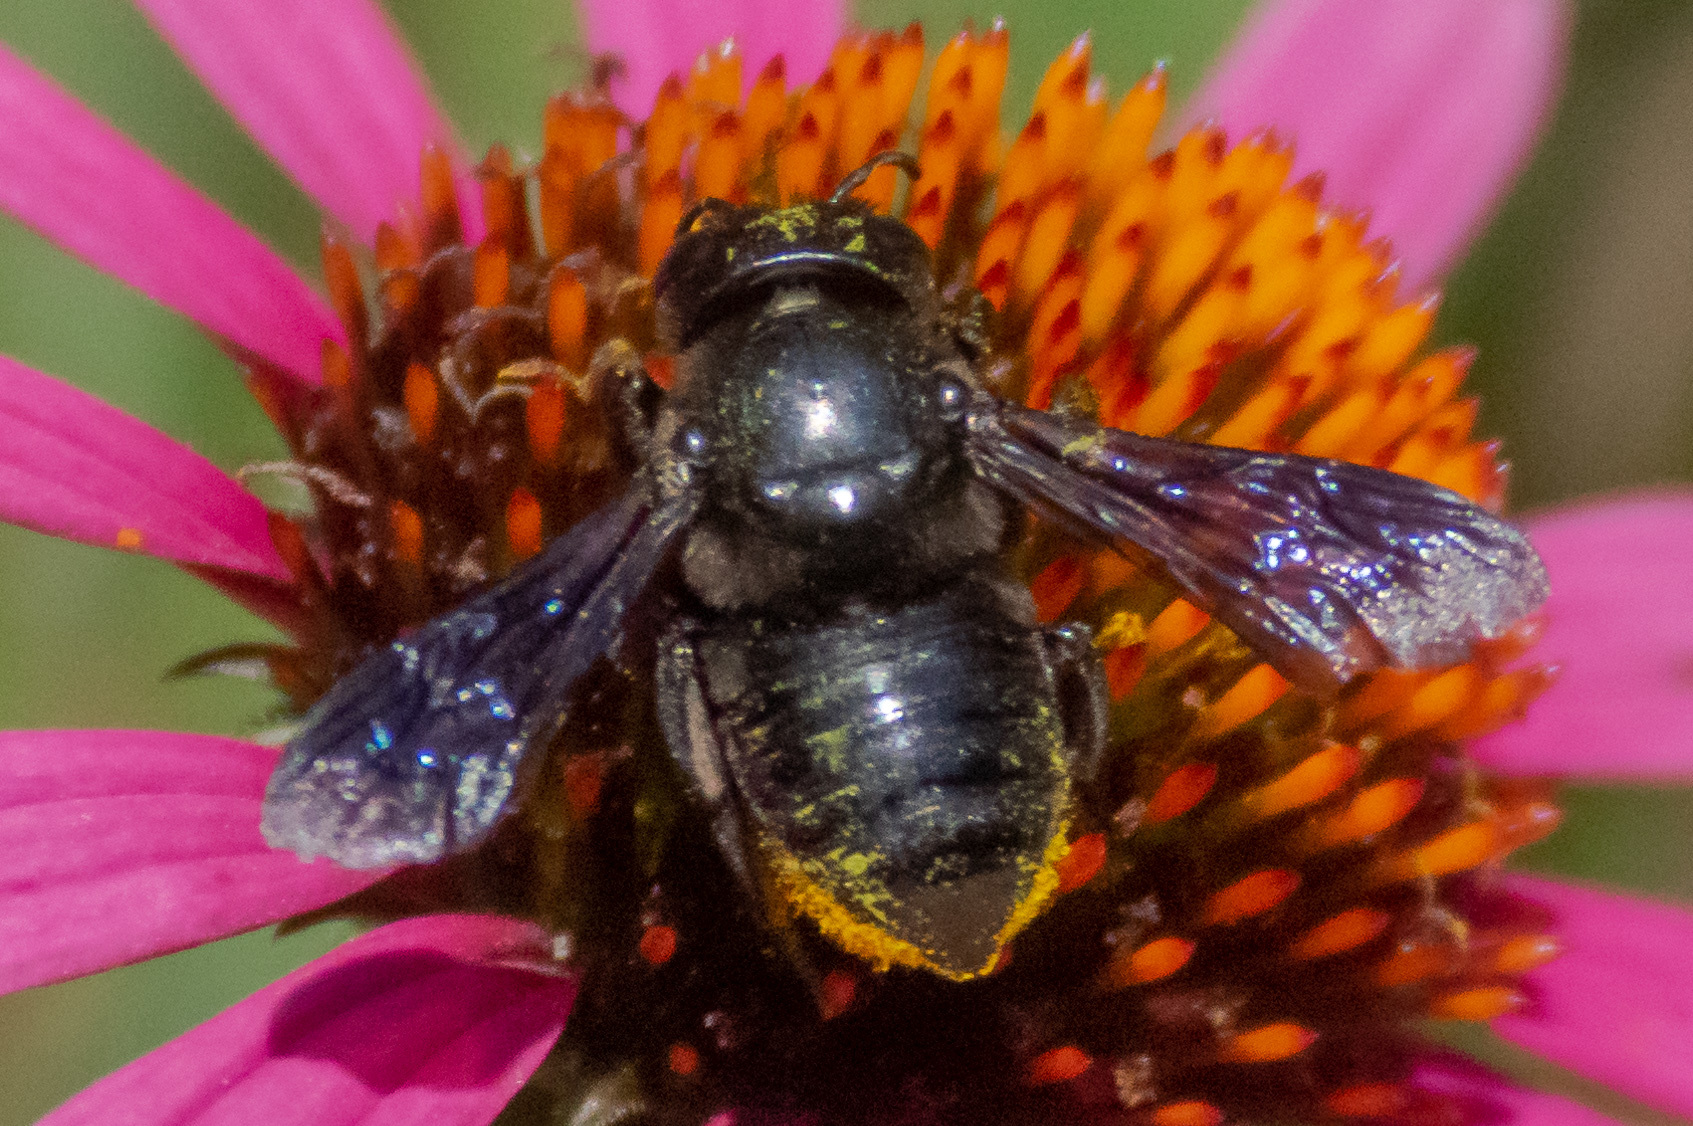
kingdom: Animalia
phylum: Arthropoda
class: Insecta
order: Hymenoptera
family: Megachilidae
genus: Megachile
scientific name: Megachile xylocopoides
